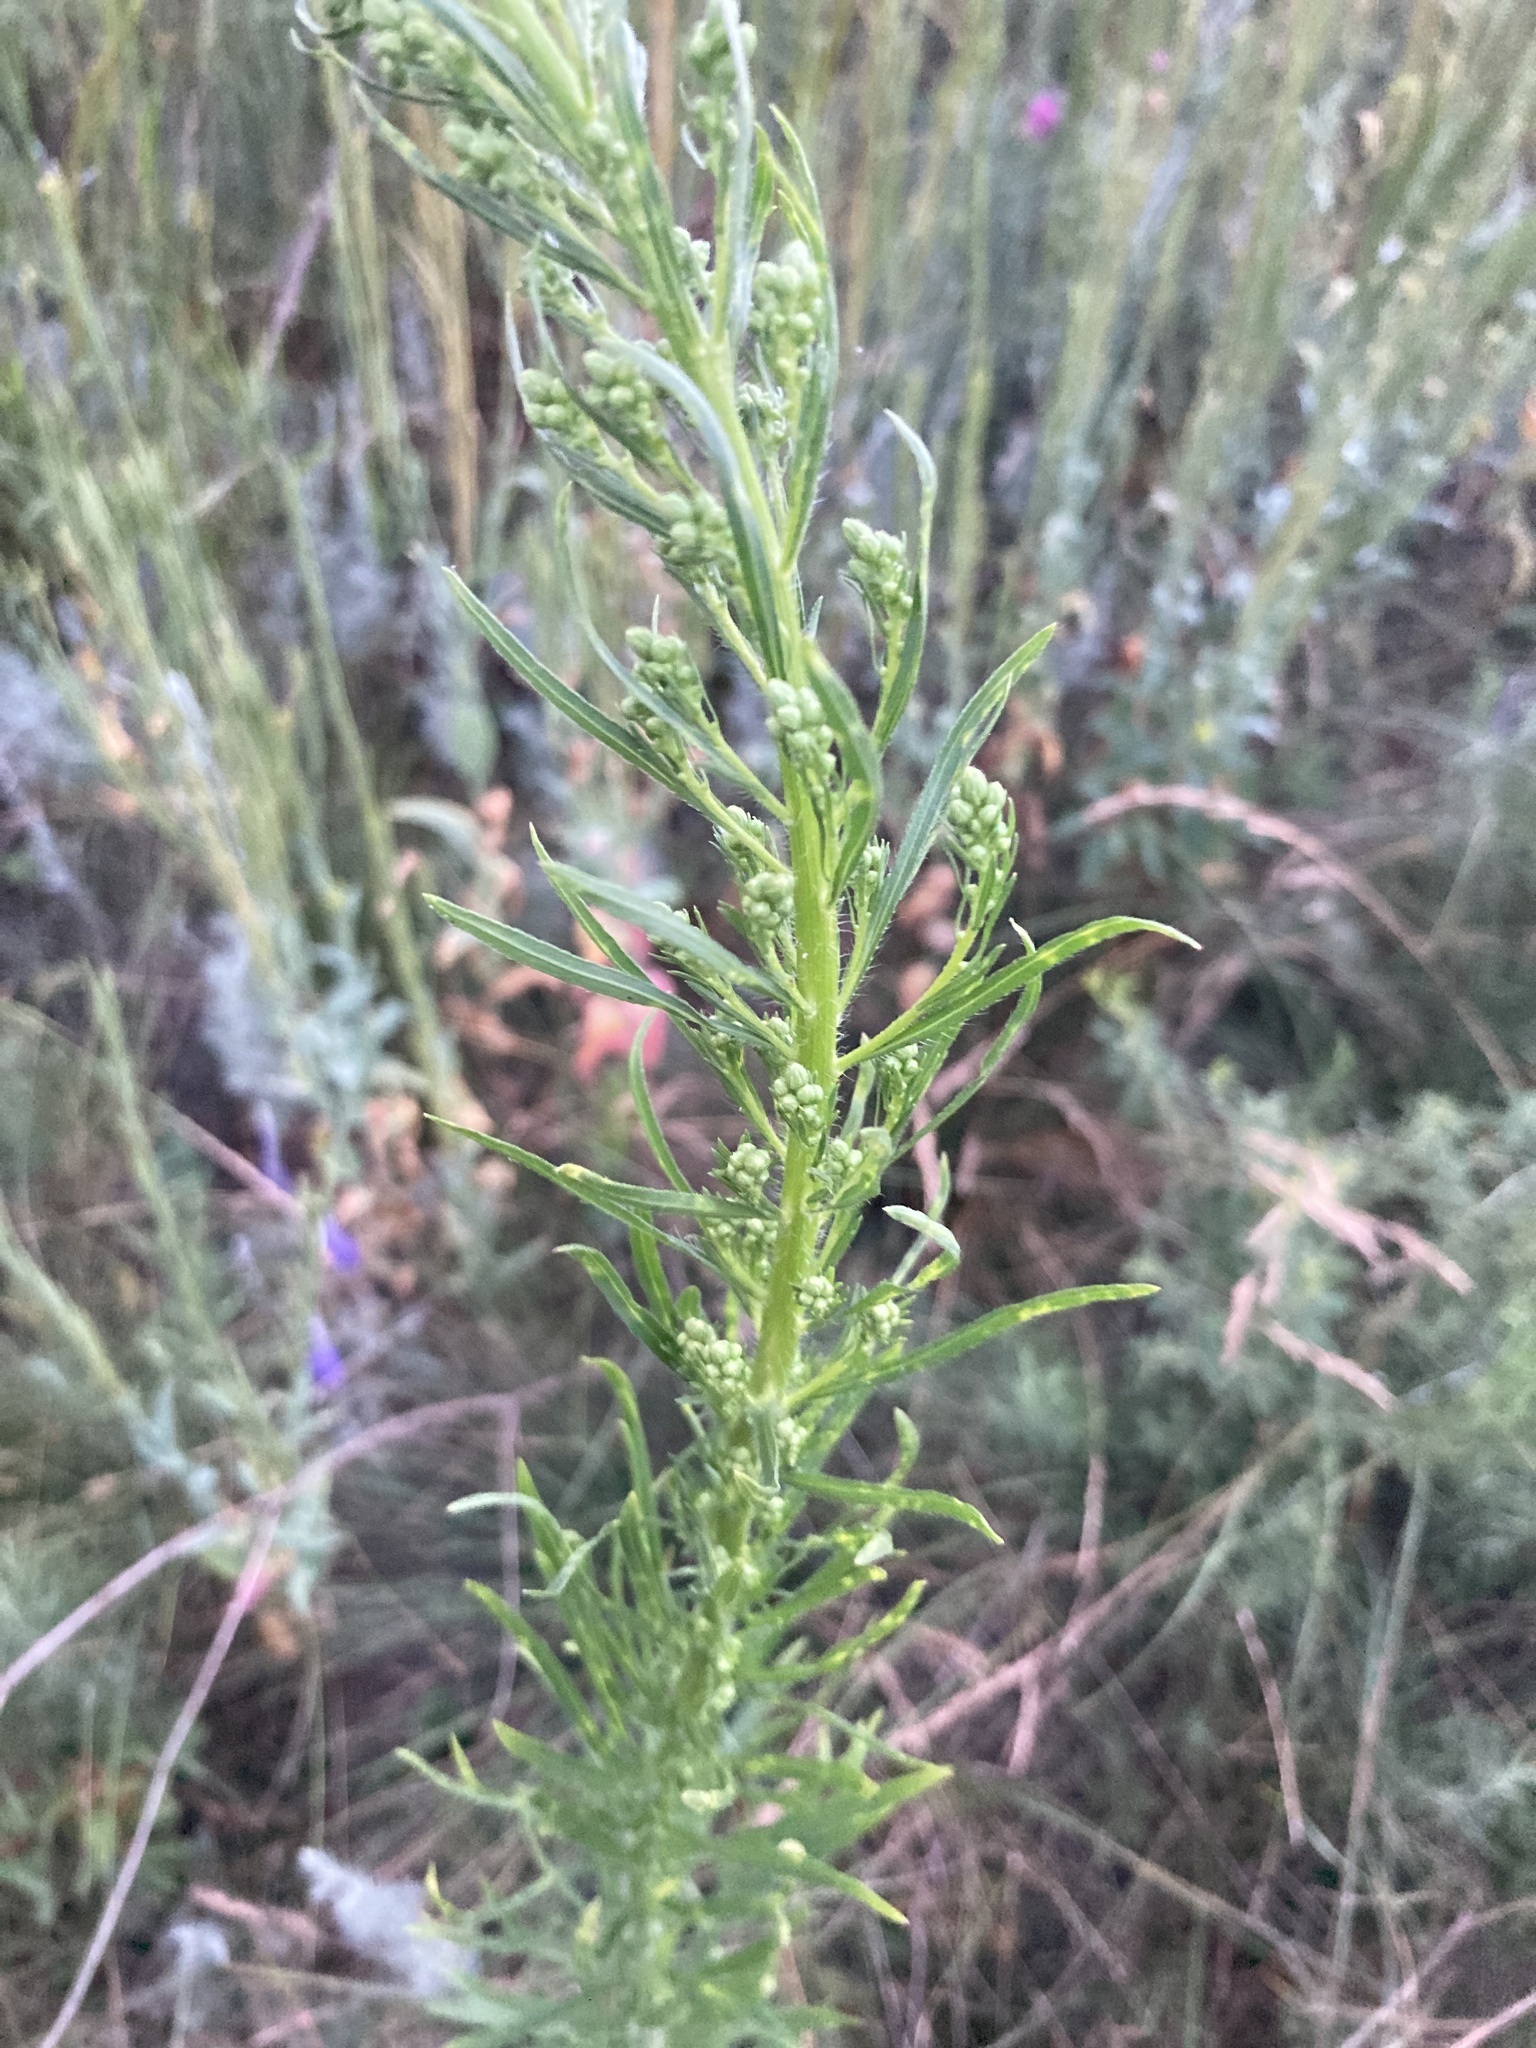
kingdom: Plantae
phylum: Tracheophyta
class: Magnoliopsida
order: Asterales
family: Asteraceae
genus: Erigeron
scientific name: Erigeron canadensis
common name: Canadian fleabane
